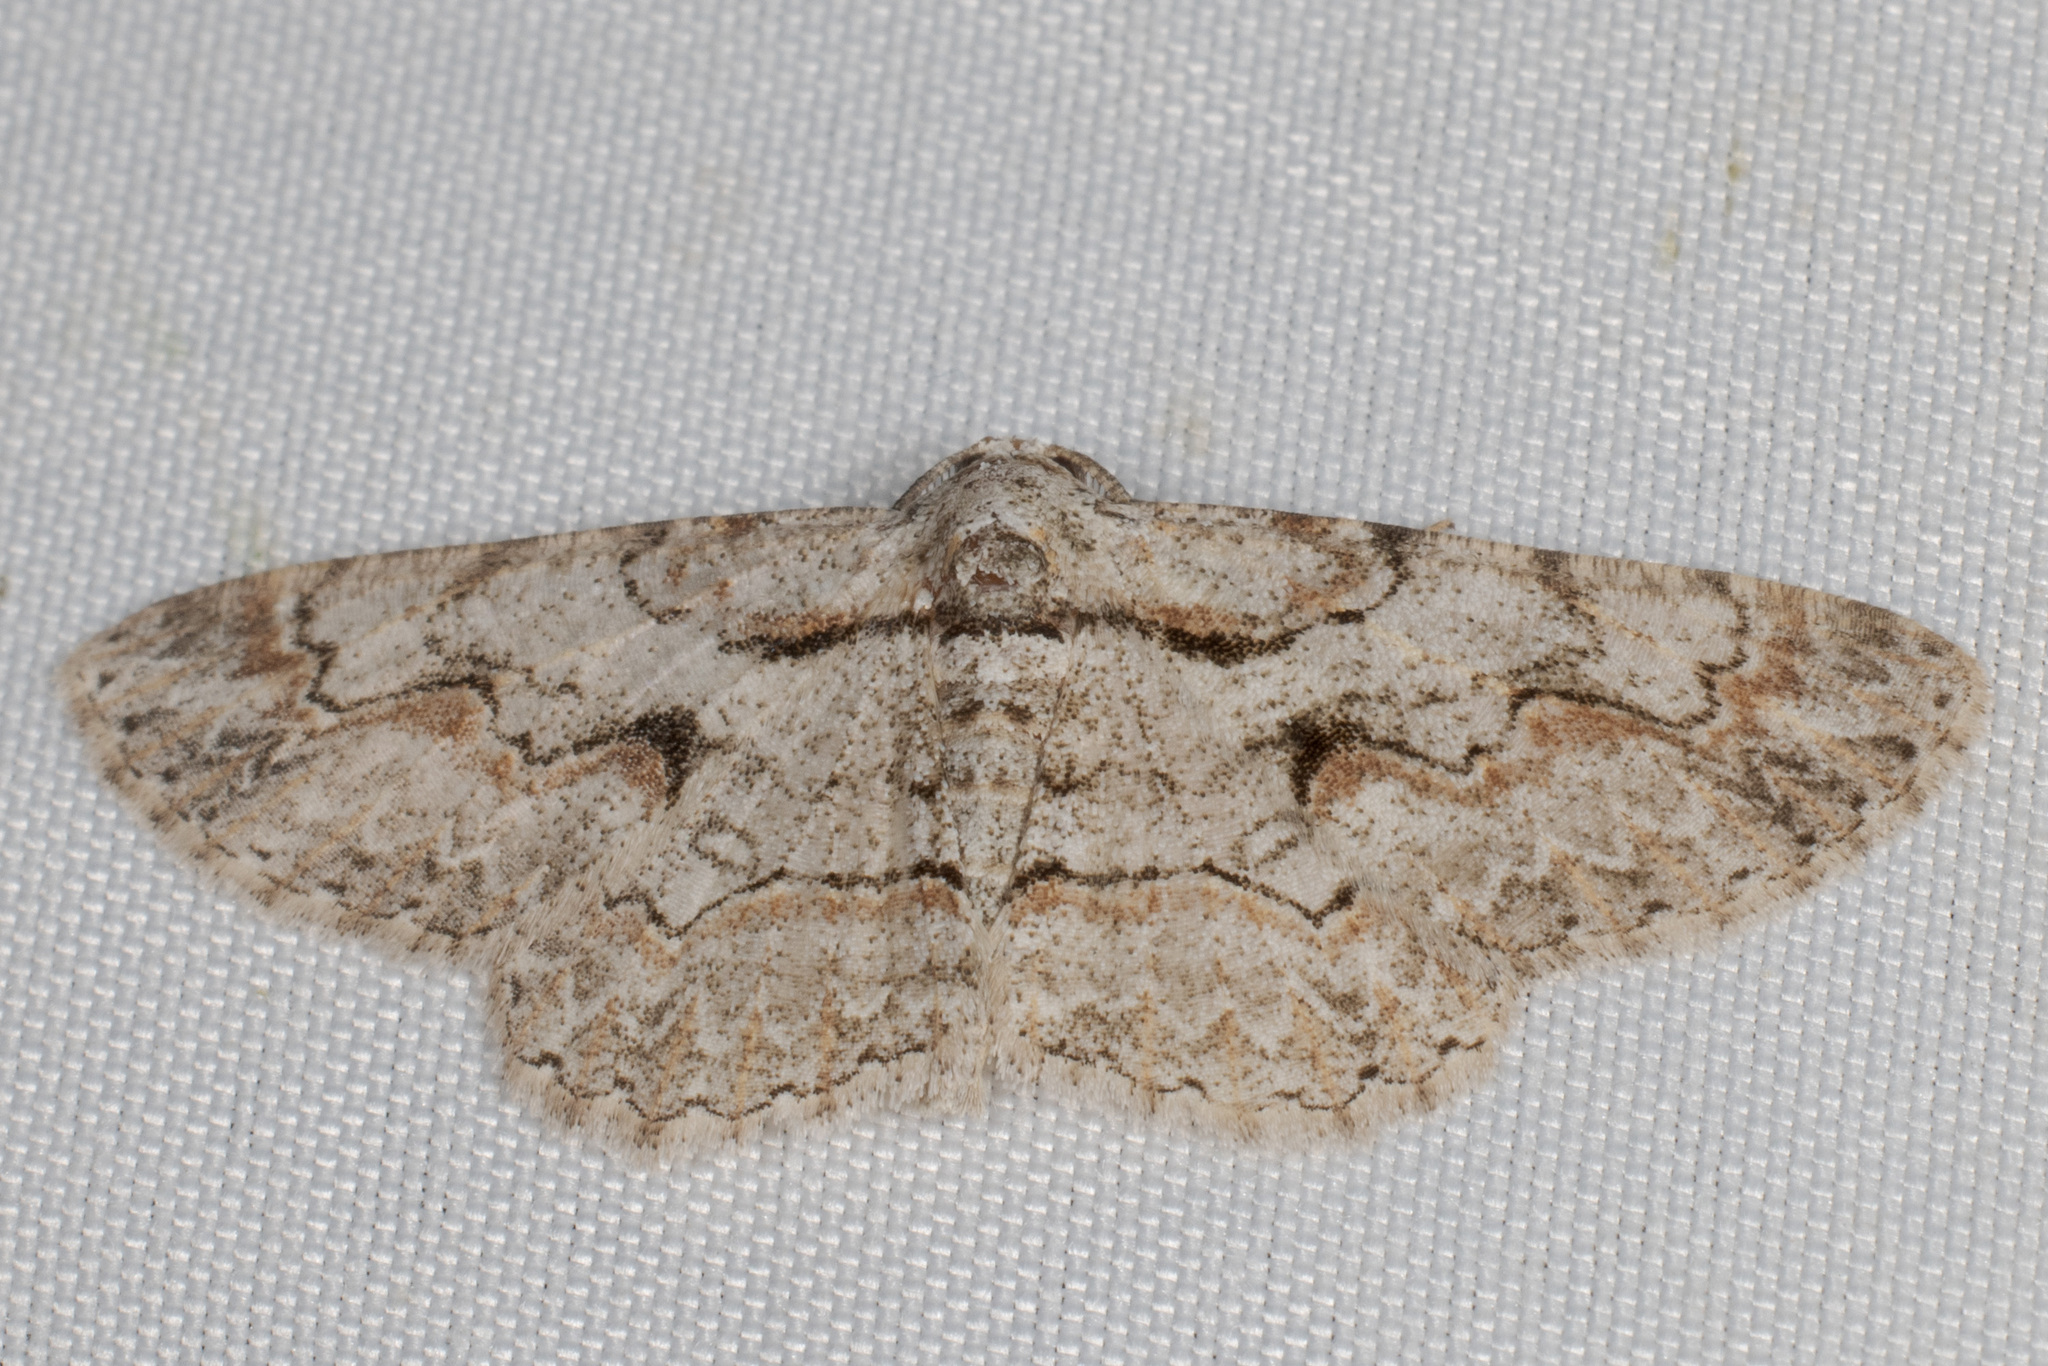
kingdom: Animalia
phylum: Arthropoda
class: Insecta
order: Lepidoptera
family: Geometridae
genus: Iridopsis
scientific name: Iridopsis defectaria
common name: Brown-shaded gray
